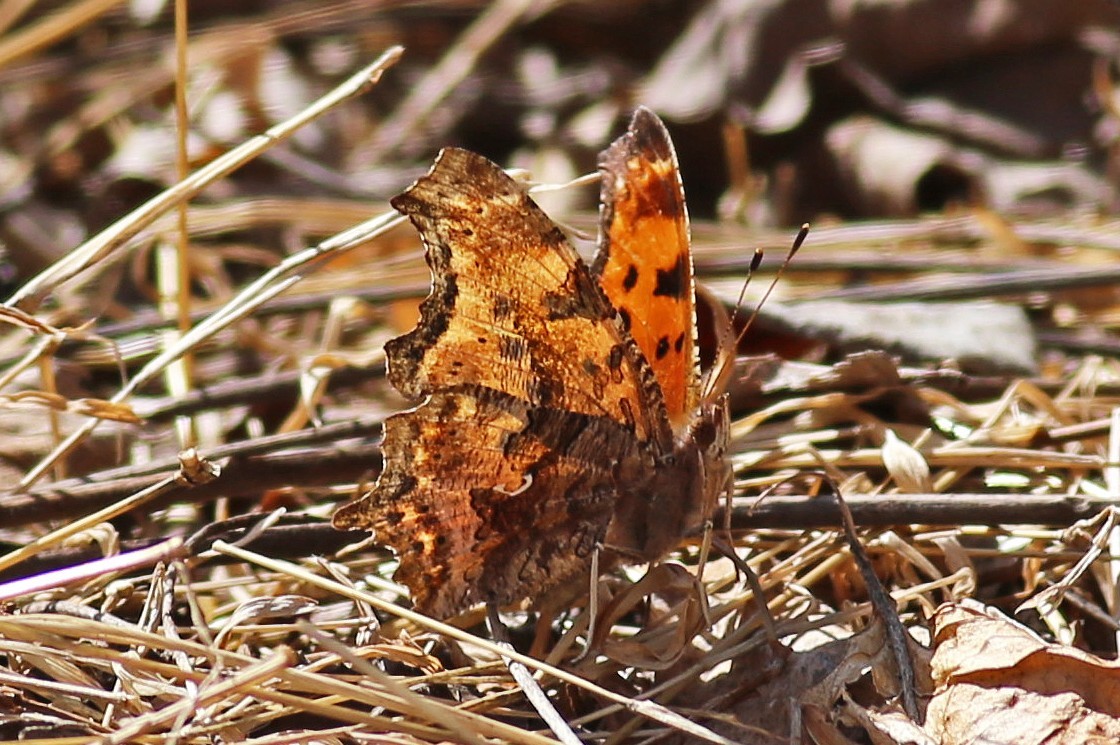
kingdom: Animalia
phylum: Arthropoda
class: Insecta
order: Lepidoptera
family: Nymphalidae
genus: Polygonia
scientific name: Polygonia comma
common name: Eastern comma
